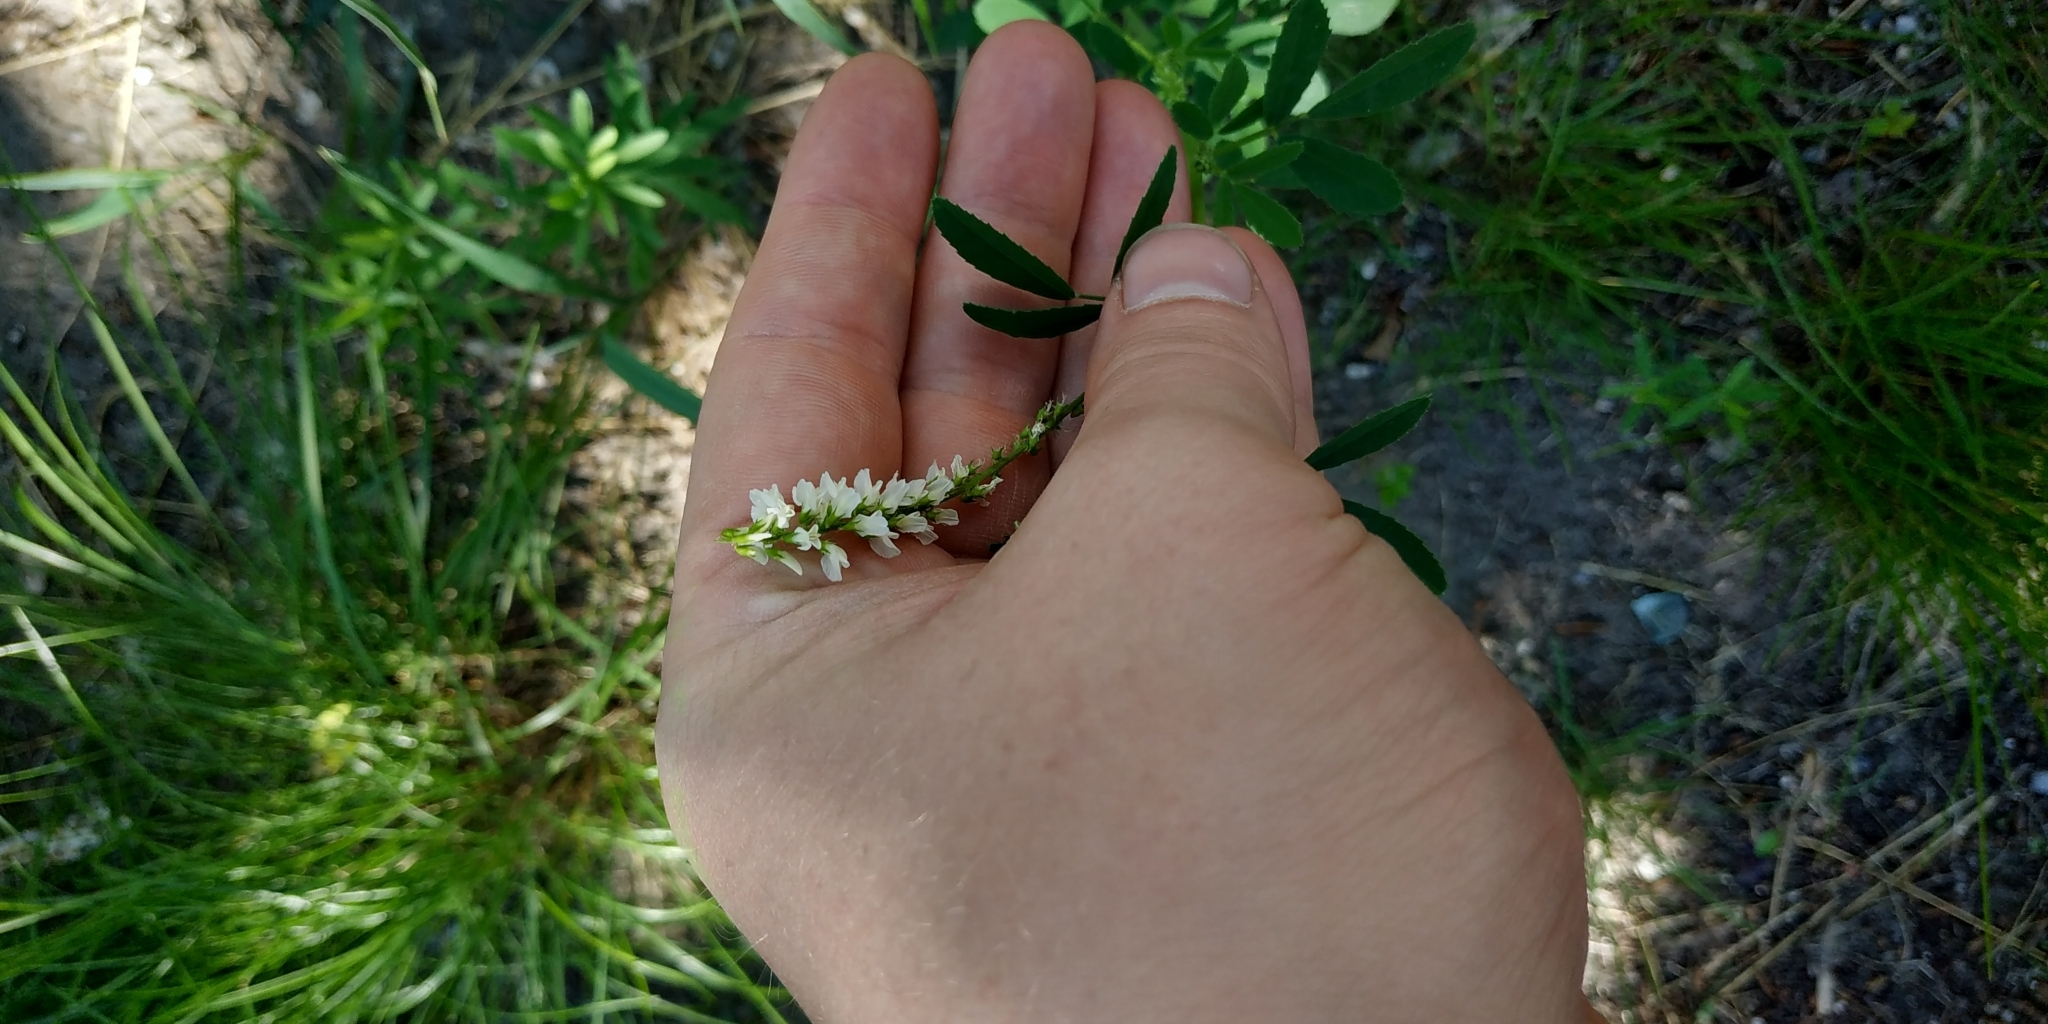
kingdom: Plantae
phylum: Tracheophyta
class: Magnoliopsida
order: Fabales
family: Fabaceae
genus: Melilotus
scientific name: Melilotus albus
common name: White melilot
